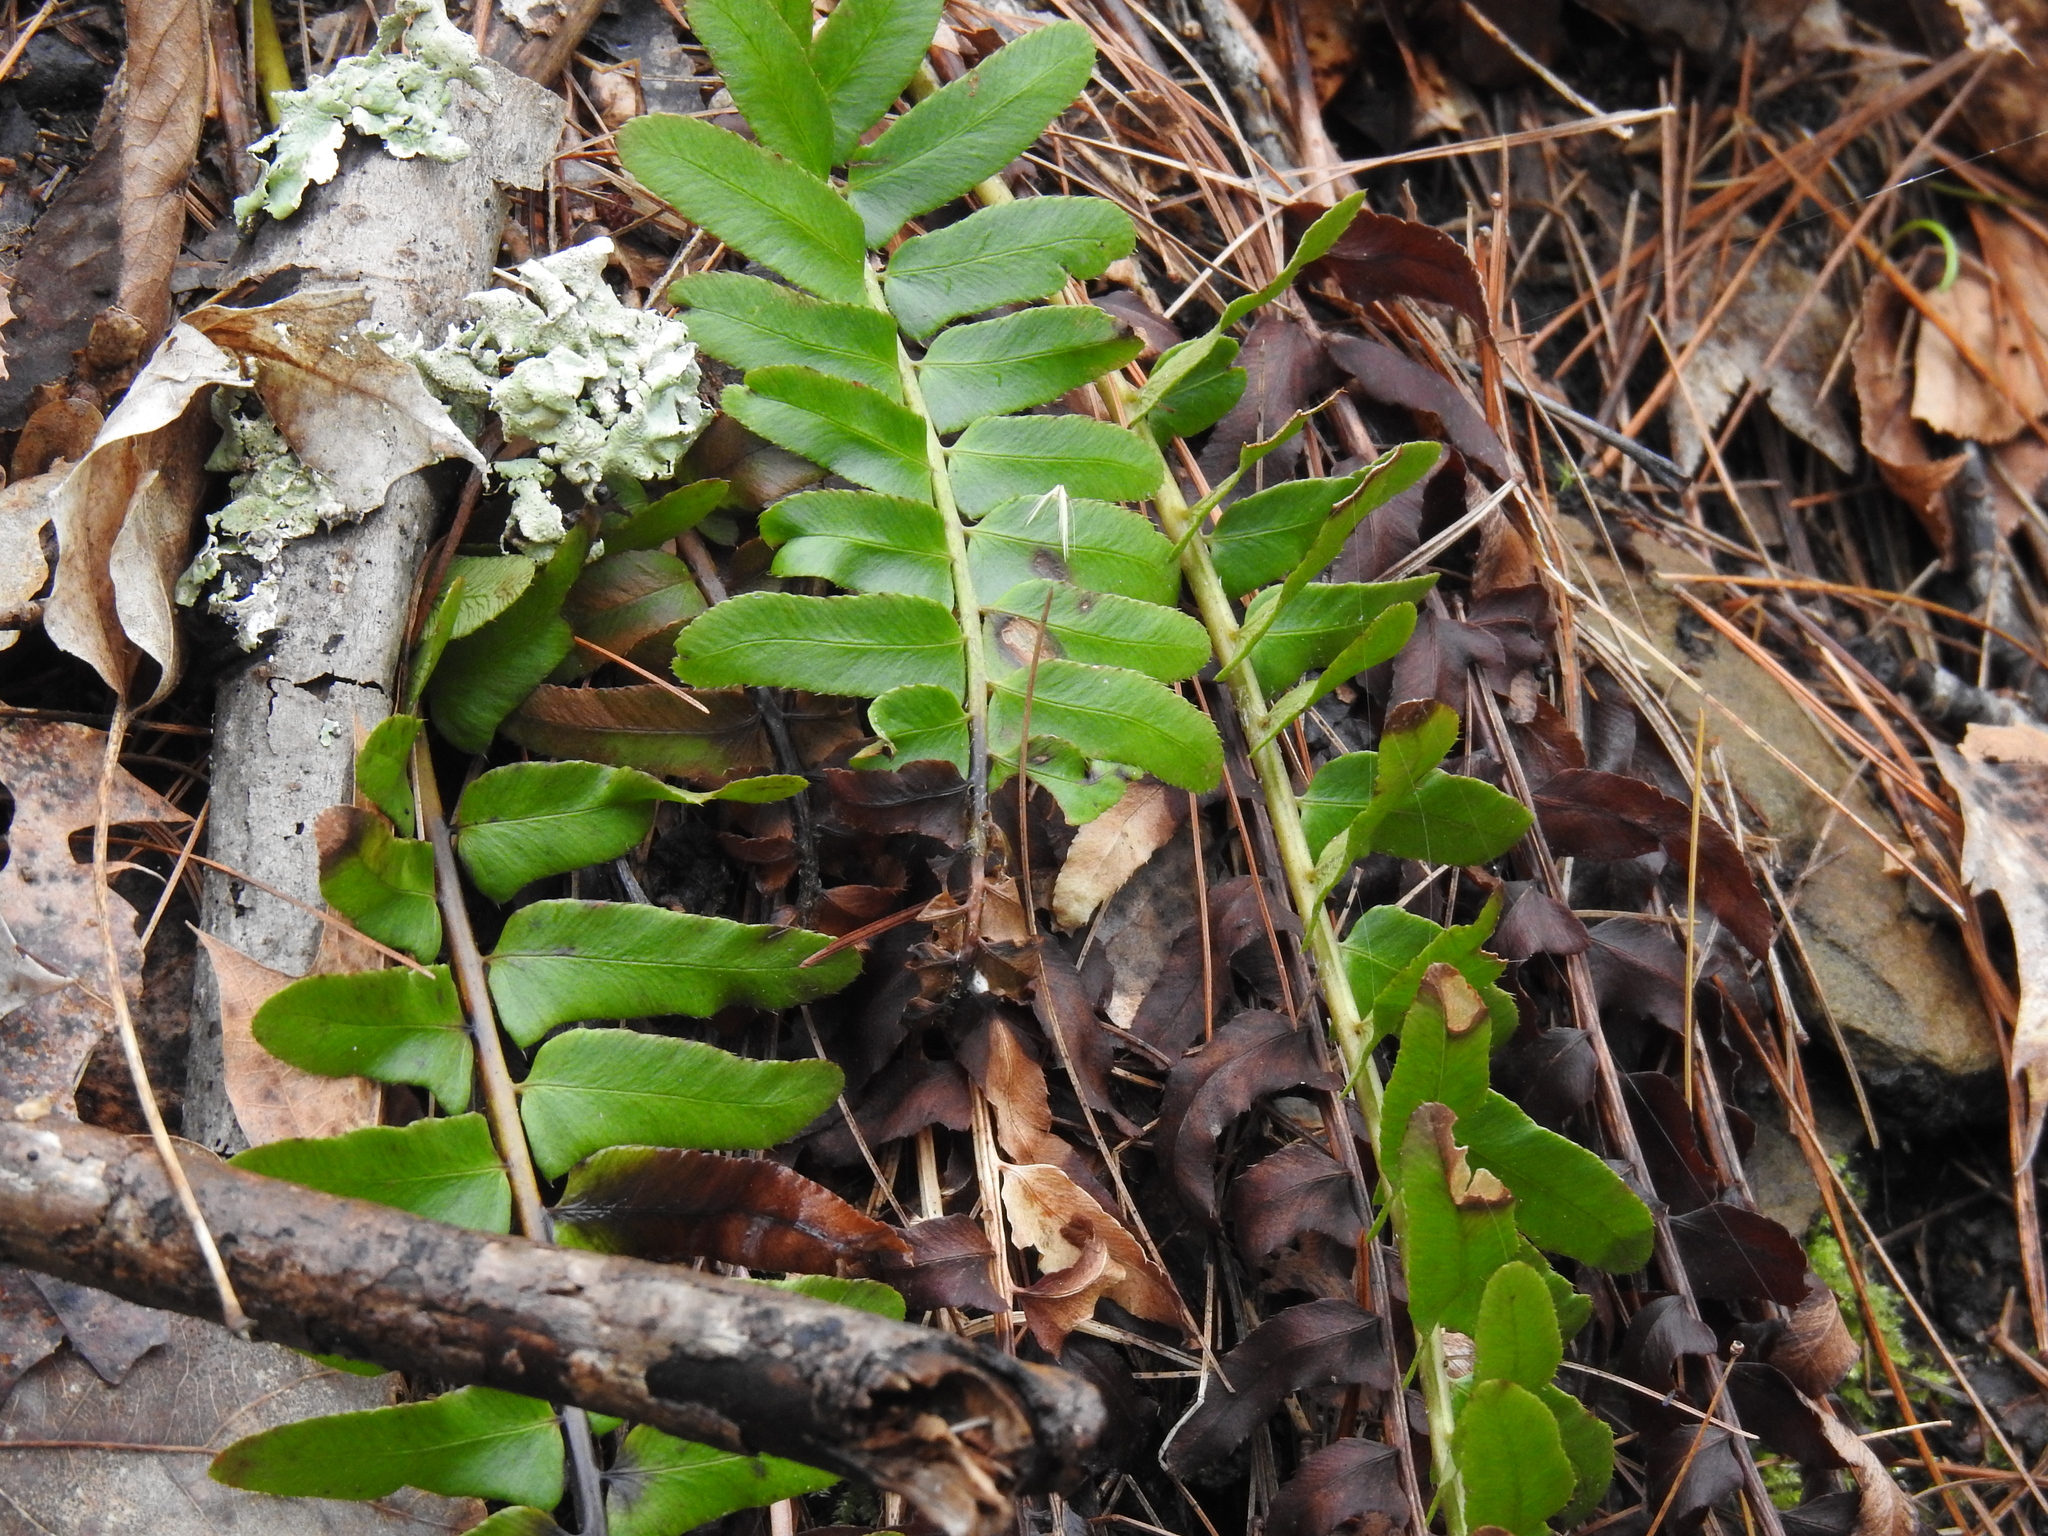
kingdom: Plantae
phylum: Tracheophyta
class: Polypodiopsida
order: Polypodiales
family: Dryopteridaceae
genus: Polystichum
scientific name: Polystichum acrostichoides
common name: Christmas fern
